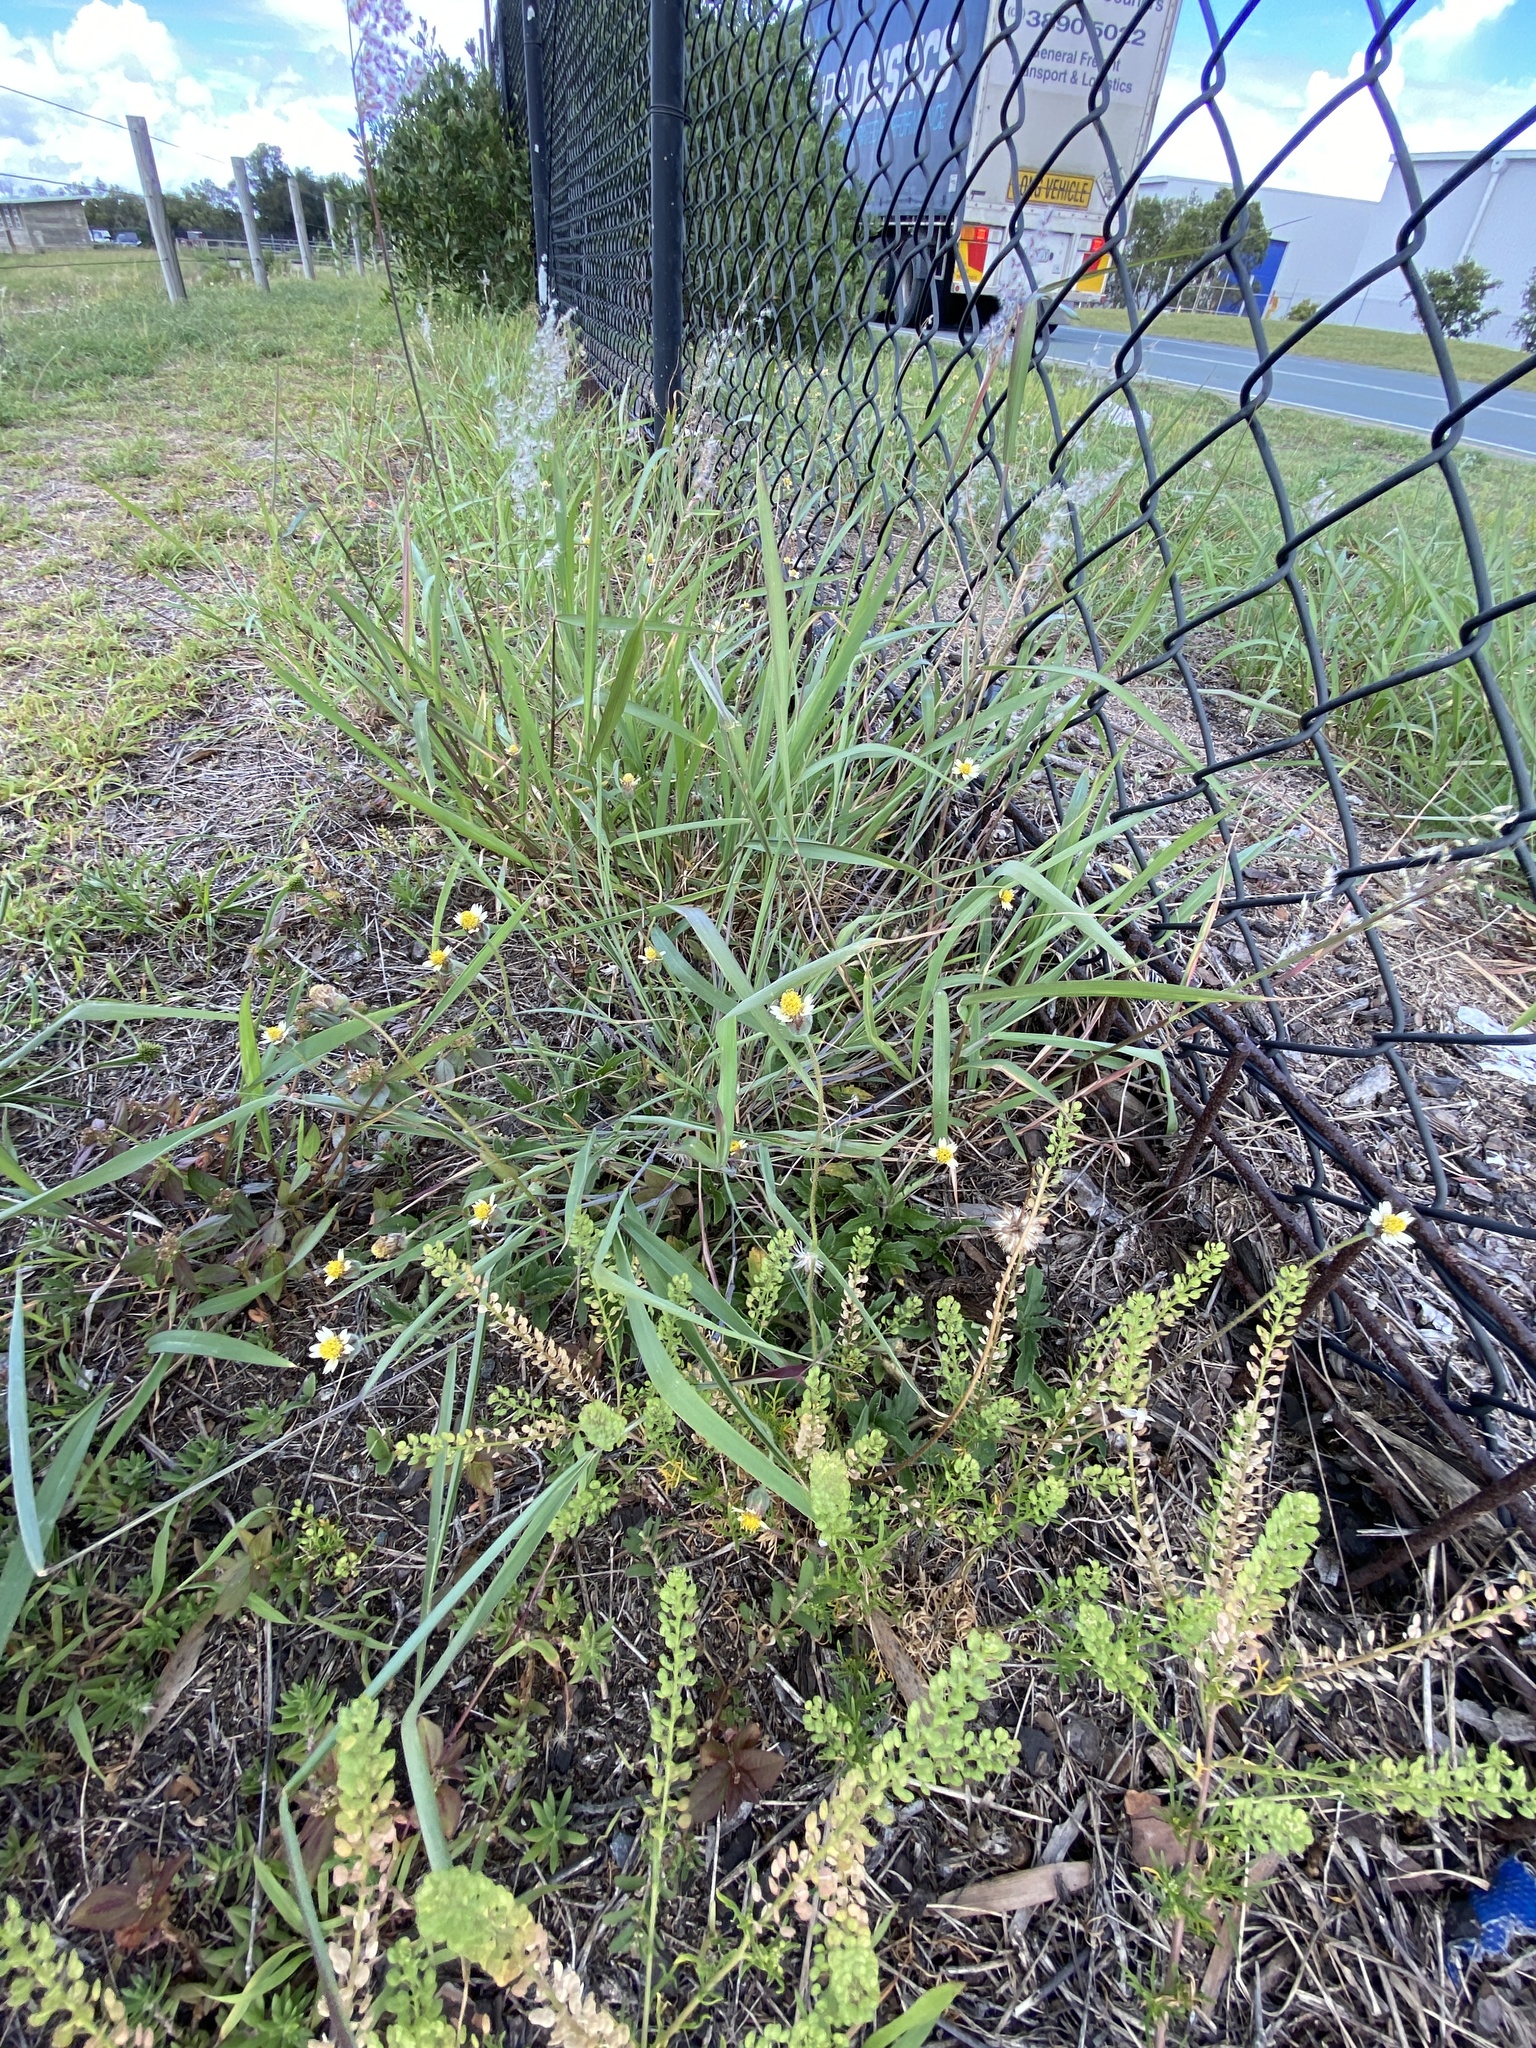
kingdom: Plantae
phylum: Tracheophyta
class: Magnoliopsida
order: Asterales
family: Asteraceae
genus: Tridax
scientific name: Tridax procumbens
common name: Coatbuttons
